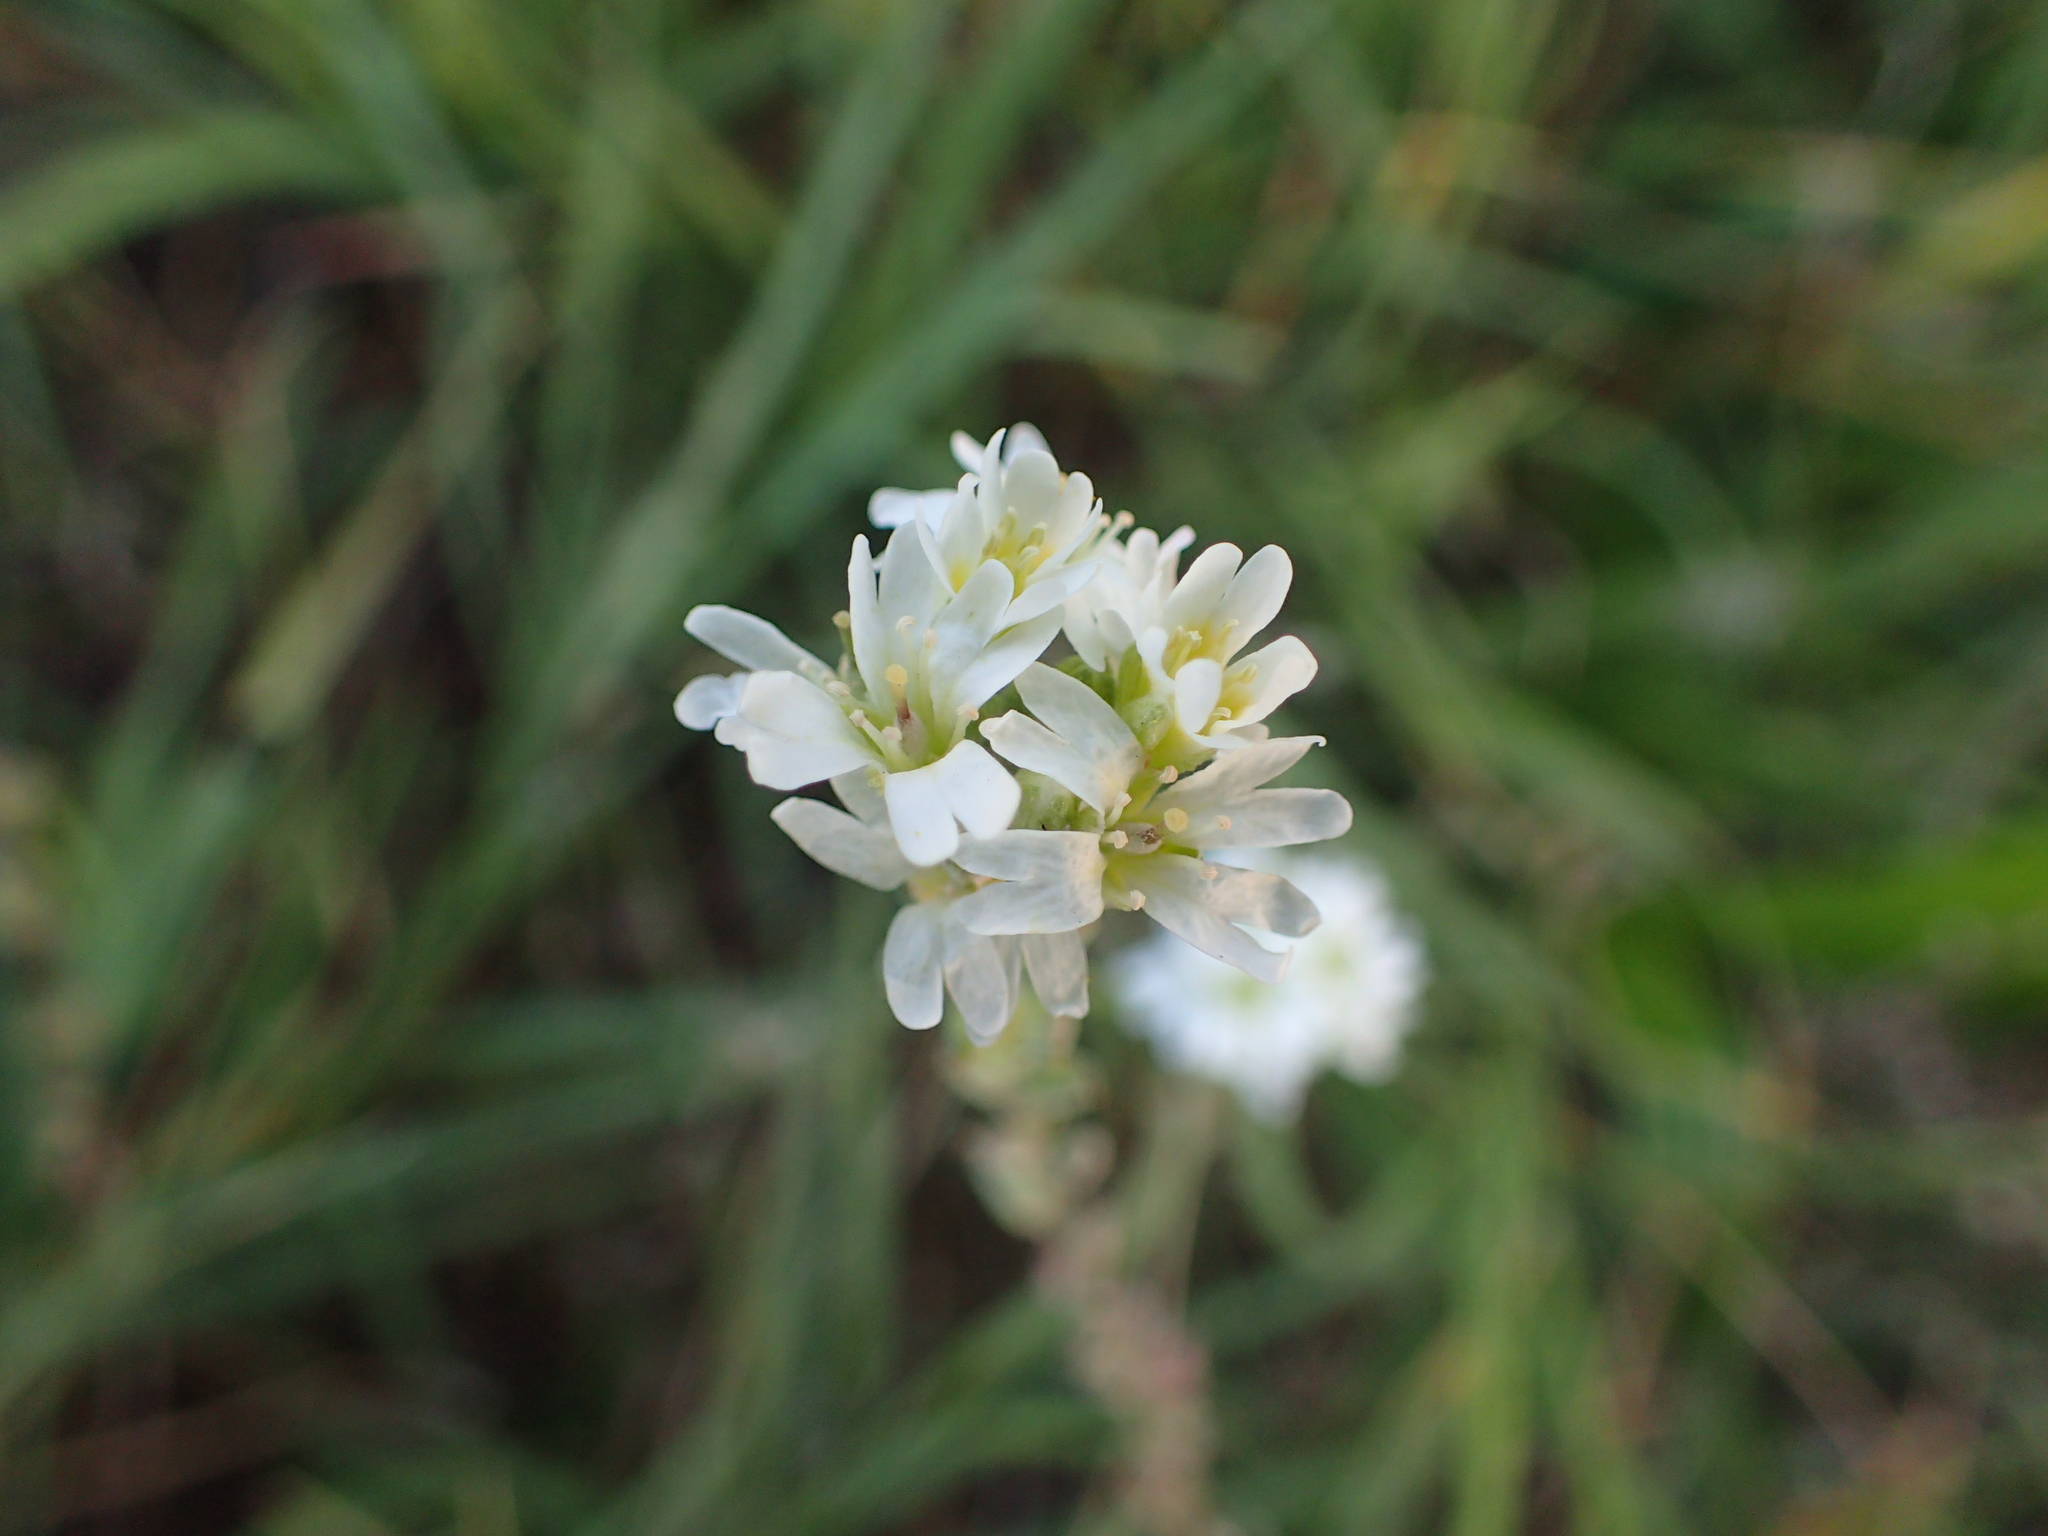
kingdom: Plantae
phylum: Tracheophyta
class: Magnoliopsida
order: Brassicales
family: Brassicaceae
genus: Berteroa
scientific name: Berteroa incana
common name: Hoary alison
